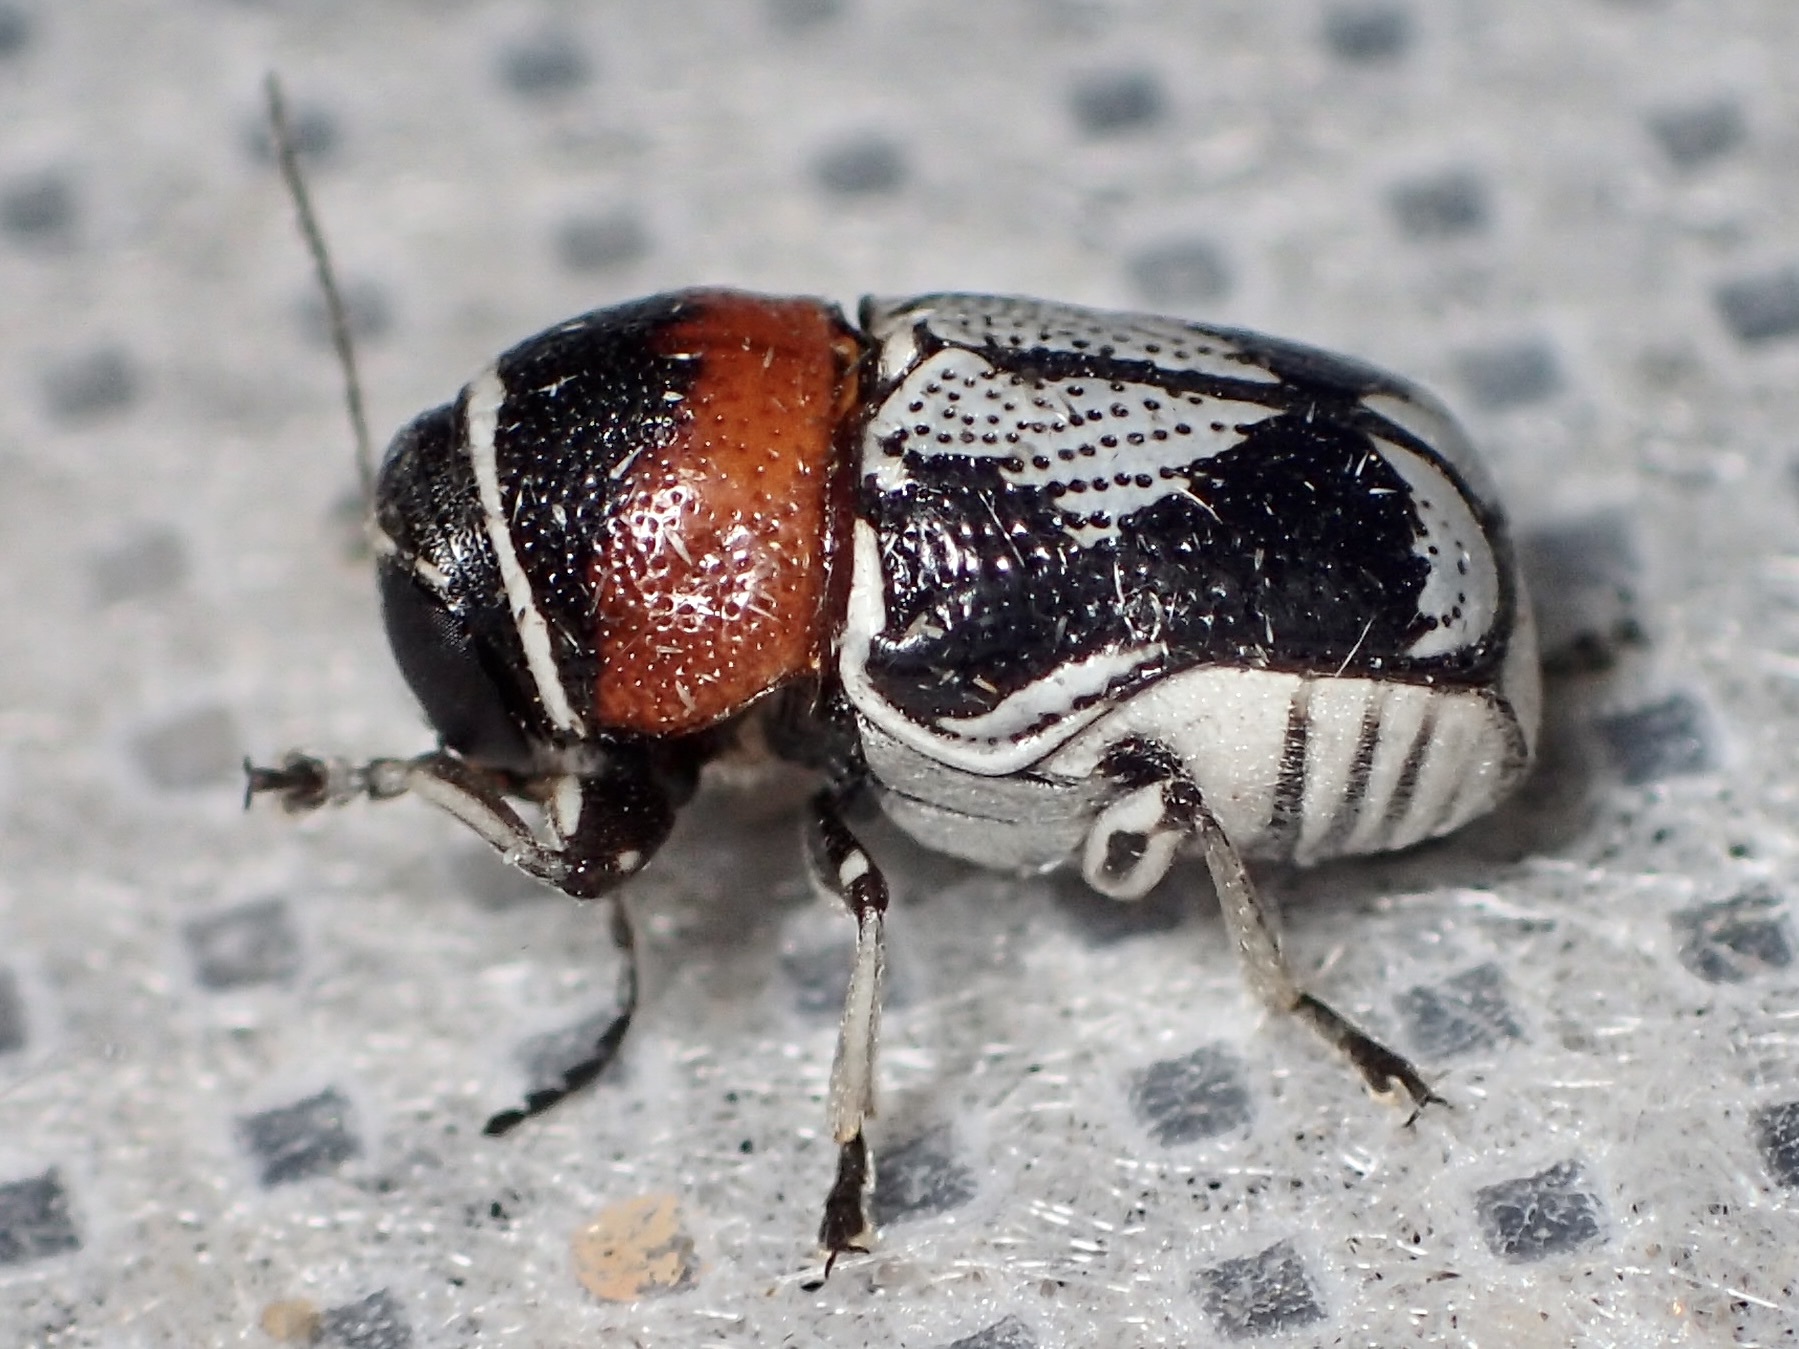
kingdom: Animalia
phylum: Arthropoda
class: Insecta
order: Coleoptera
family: Chrysomelidae
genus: Griburius
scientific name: Griburius montezuma
